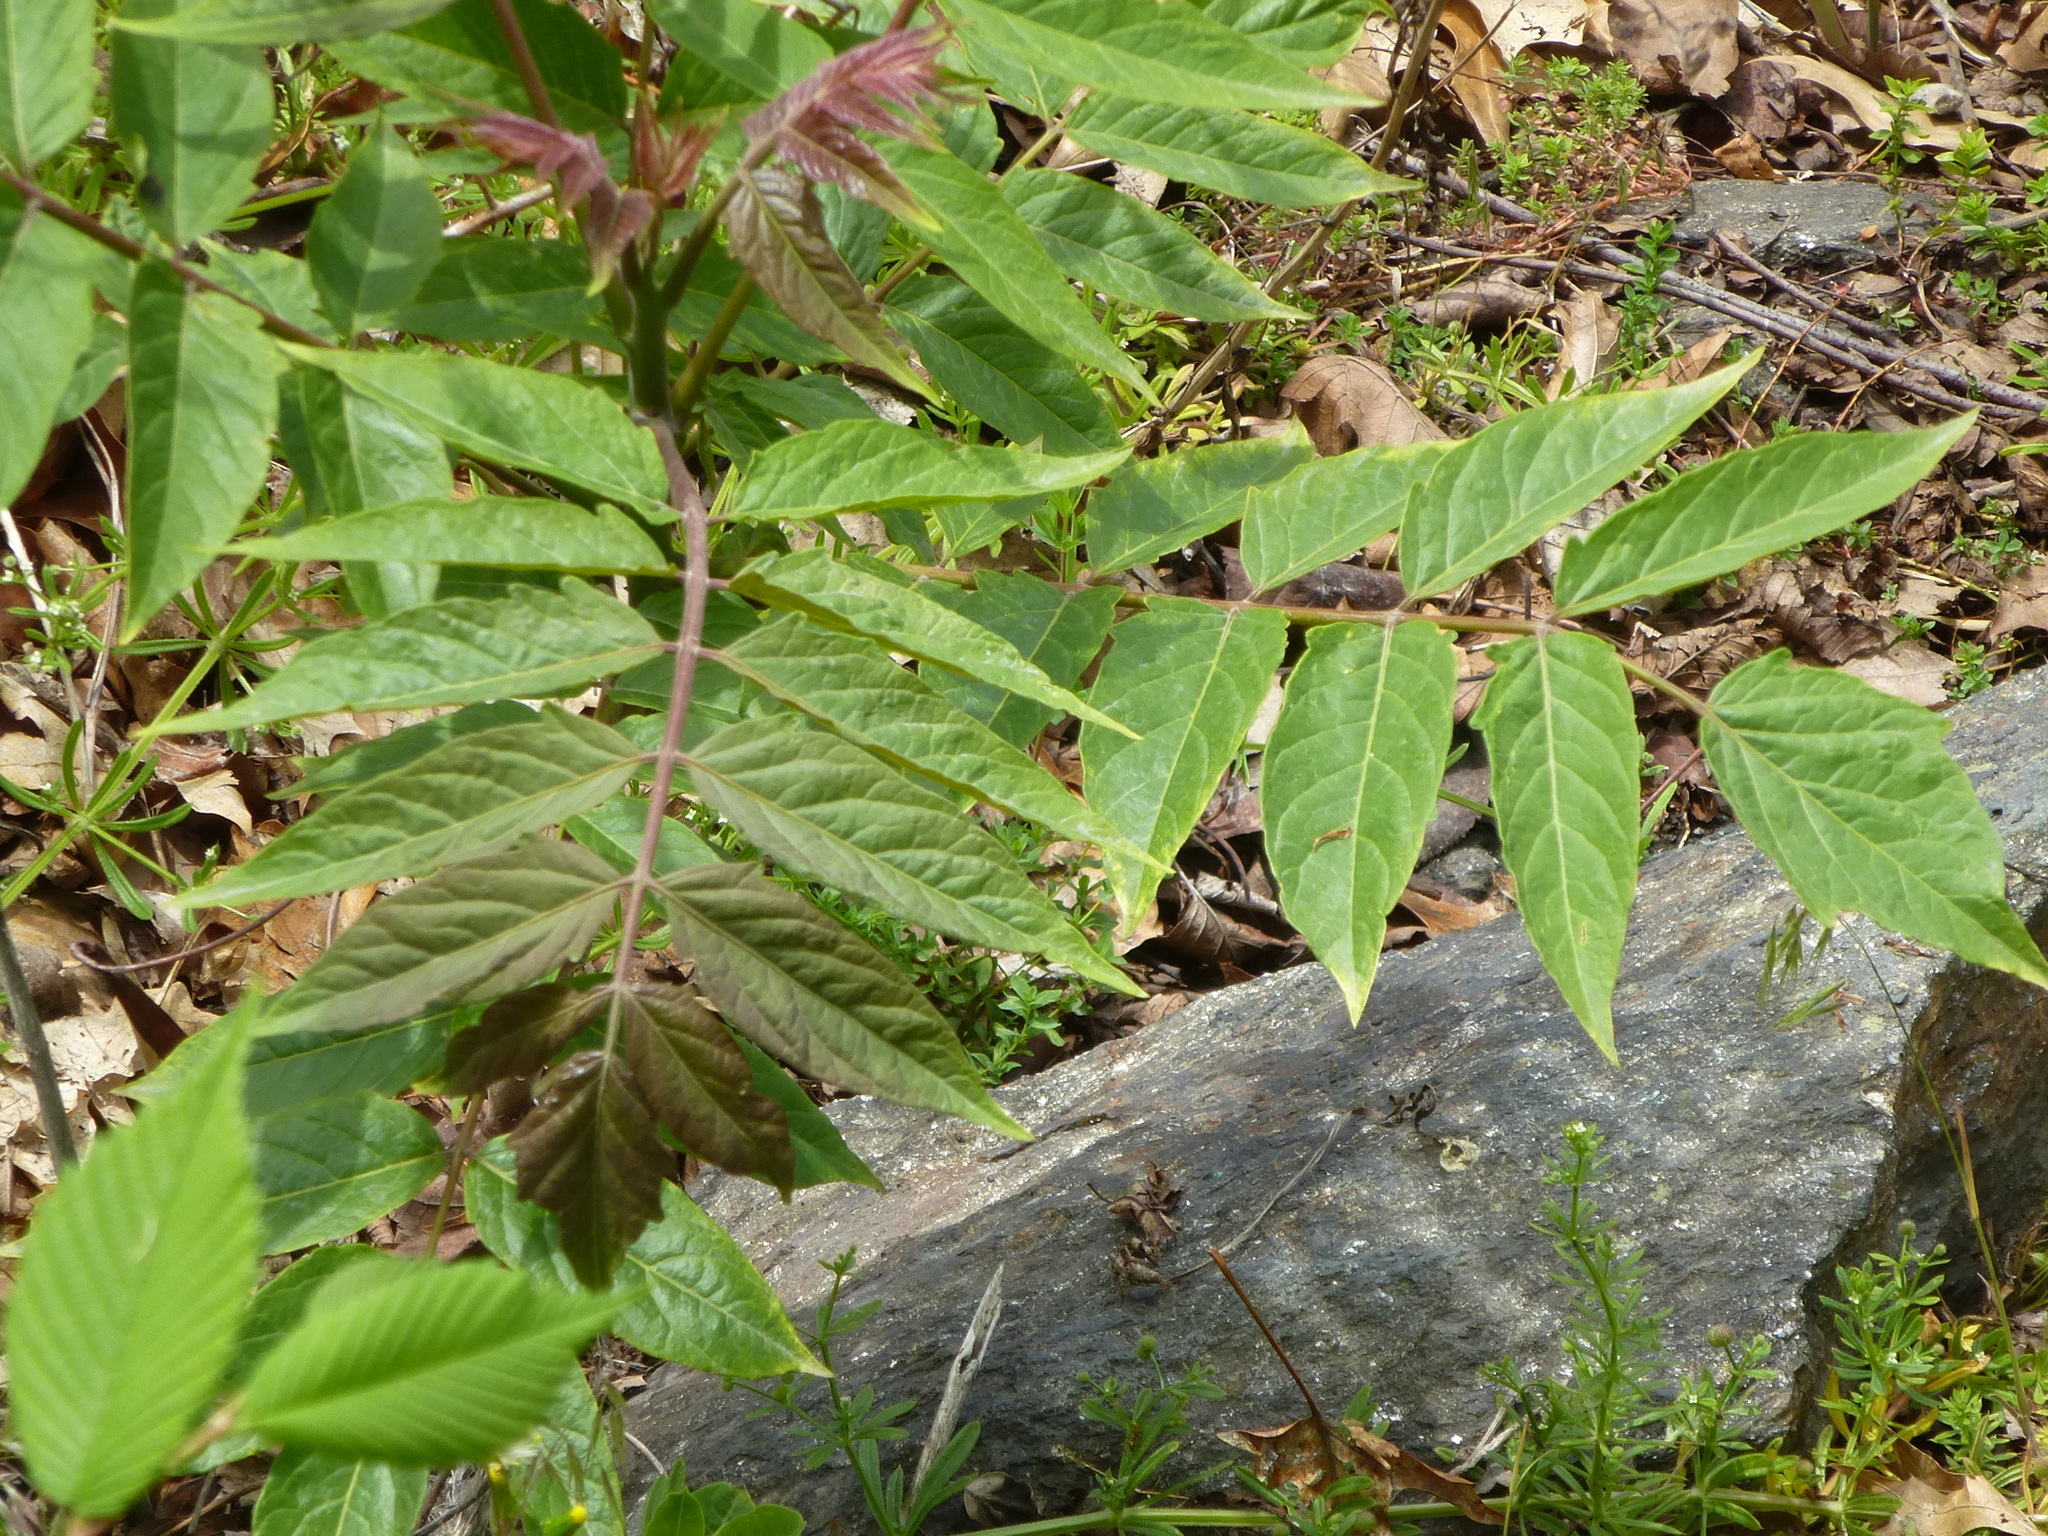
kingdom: Plantae
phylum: Tracheophyta
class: Magnoliopsida
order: Sapindales
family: Simaroubaceae
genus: Ailanthus
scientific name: Ailanthus altissima
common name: Tree-of-heaven
